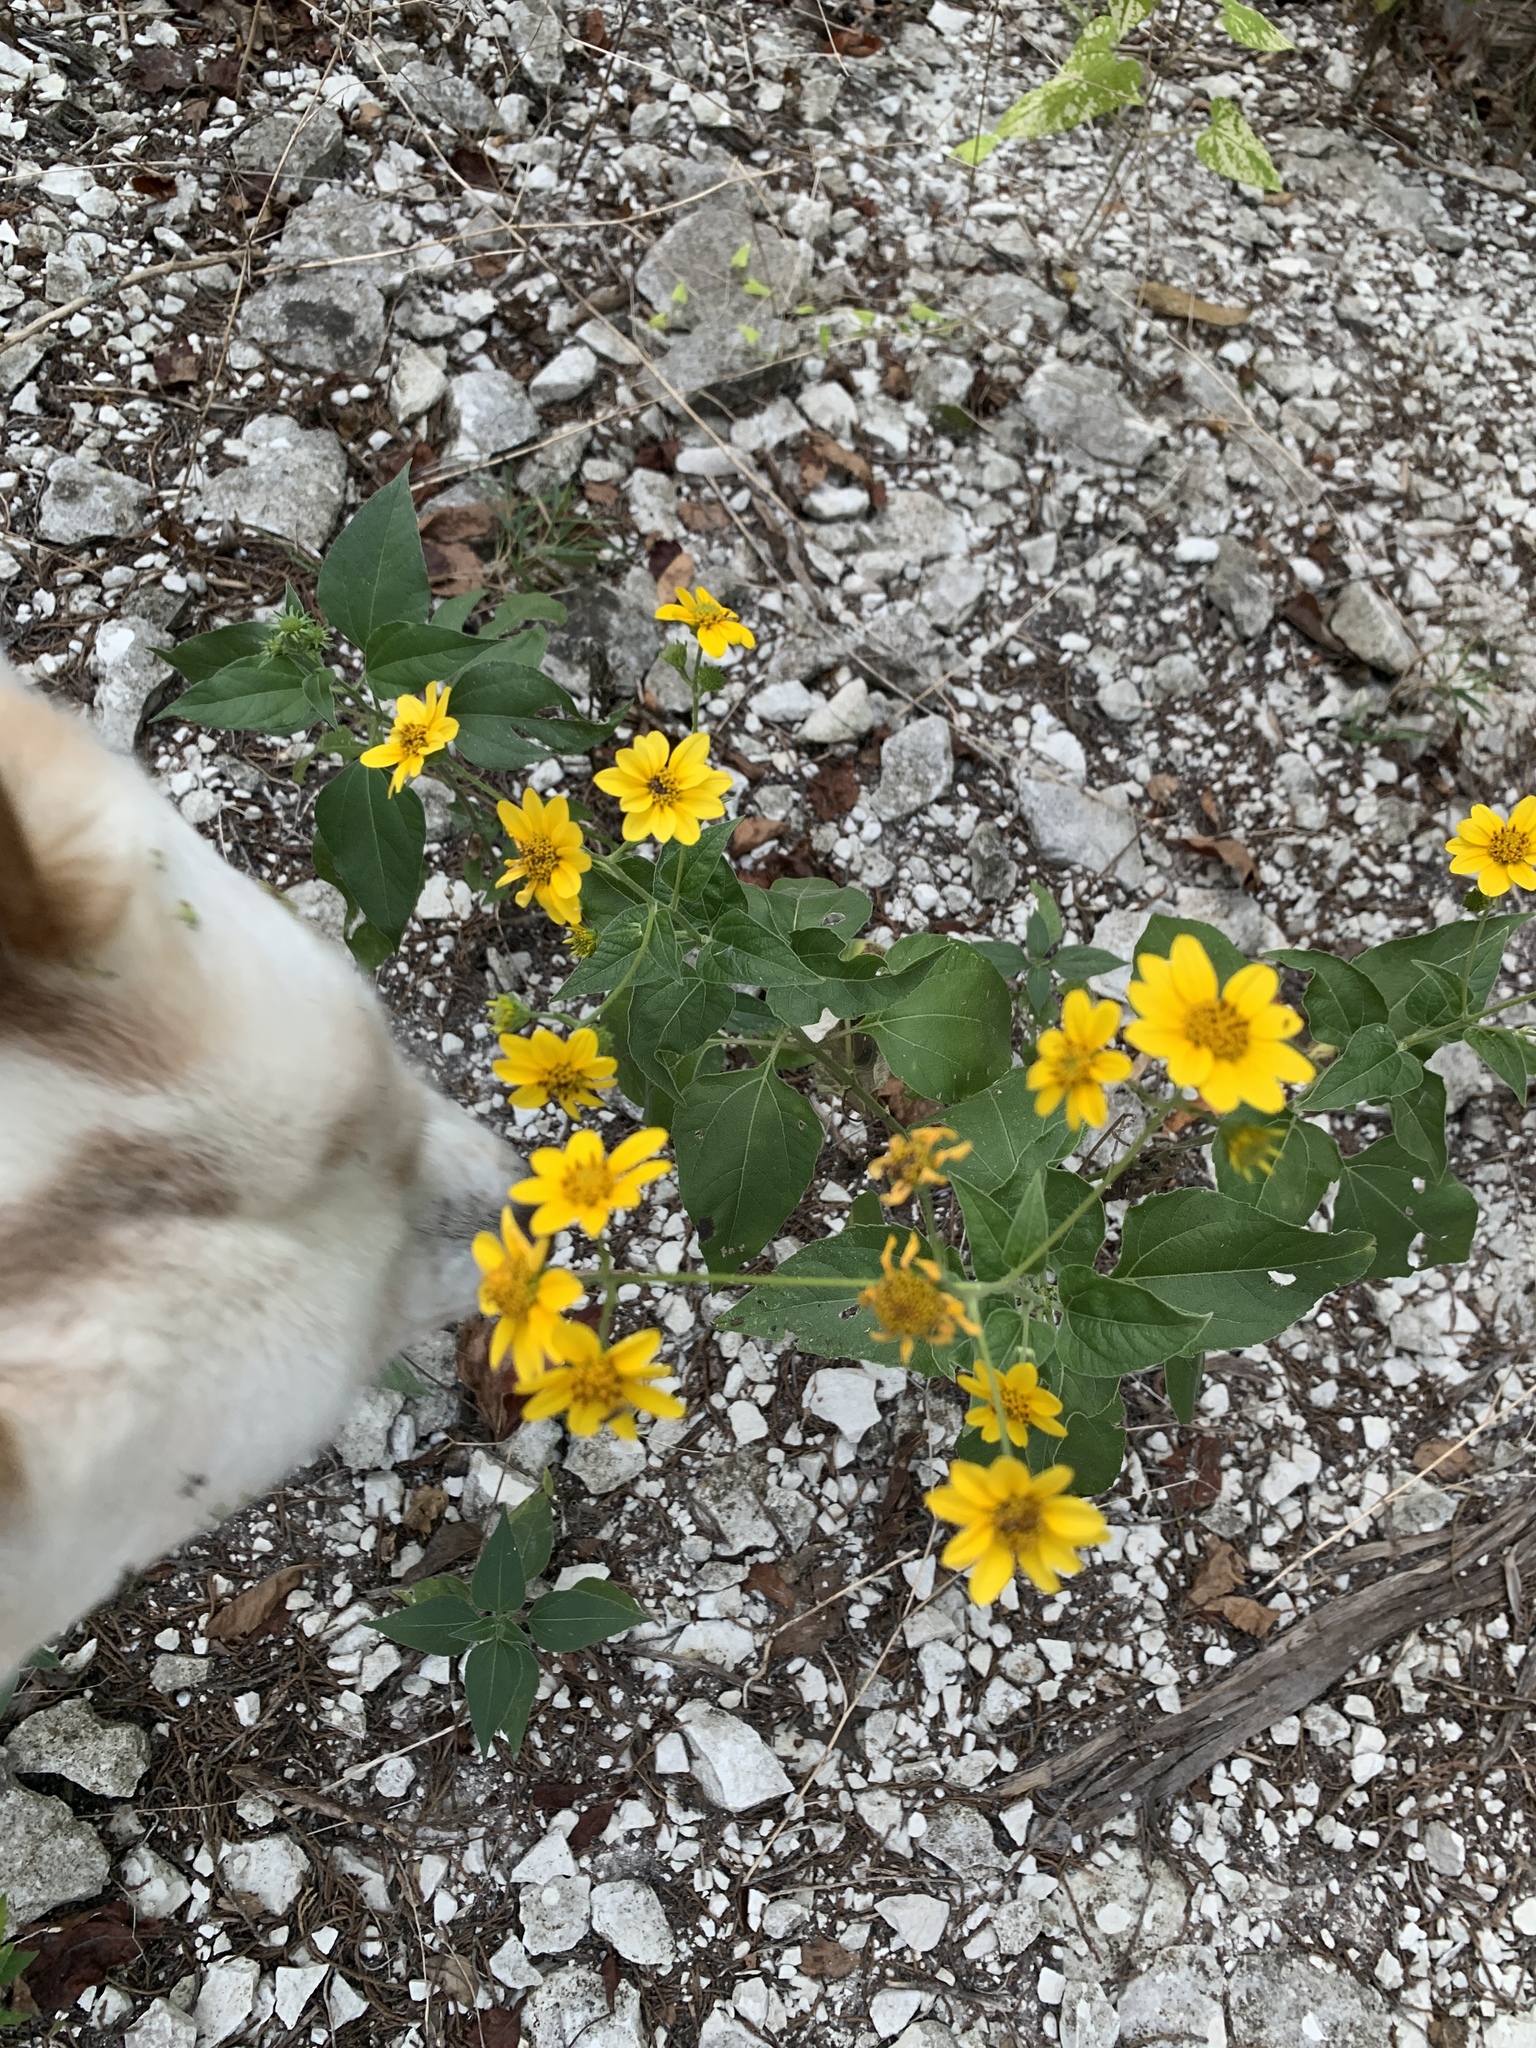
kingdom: Plantae
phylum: Tracheophyta
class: Magnoliopsida
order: Asterales
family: Asteraceae
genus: Viguiera
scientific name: Viguiera dentata
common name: Toothleaf
